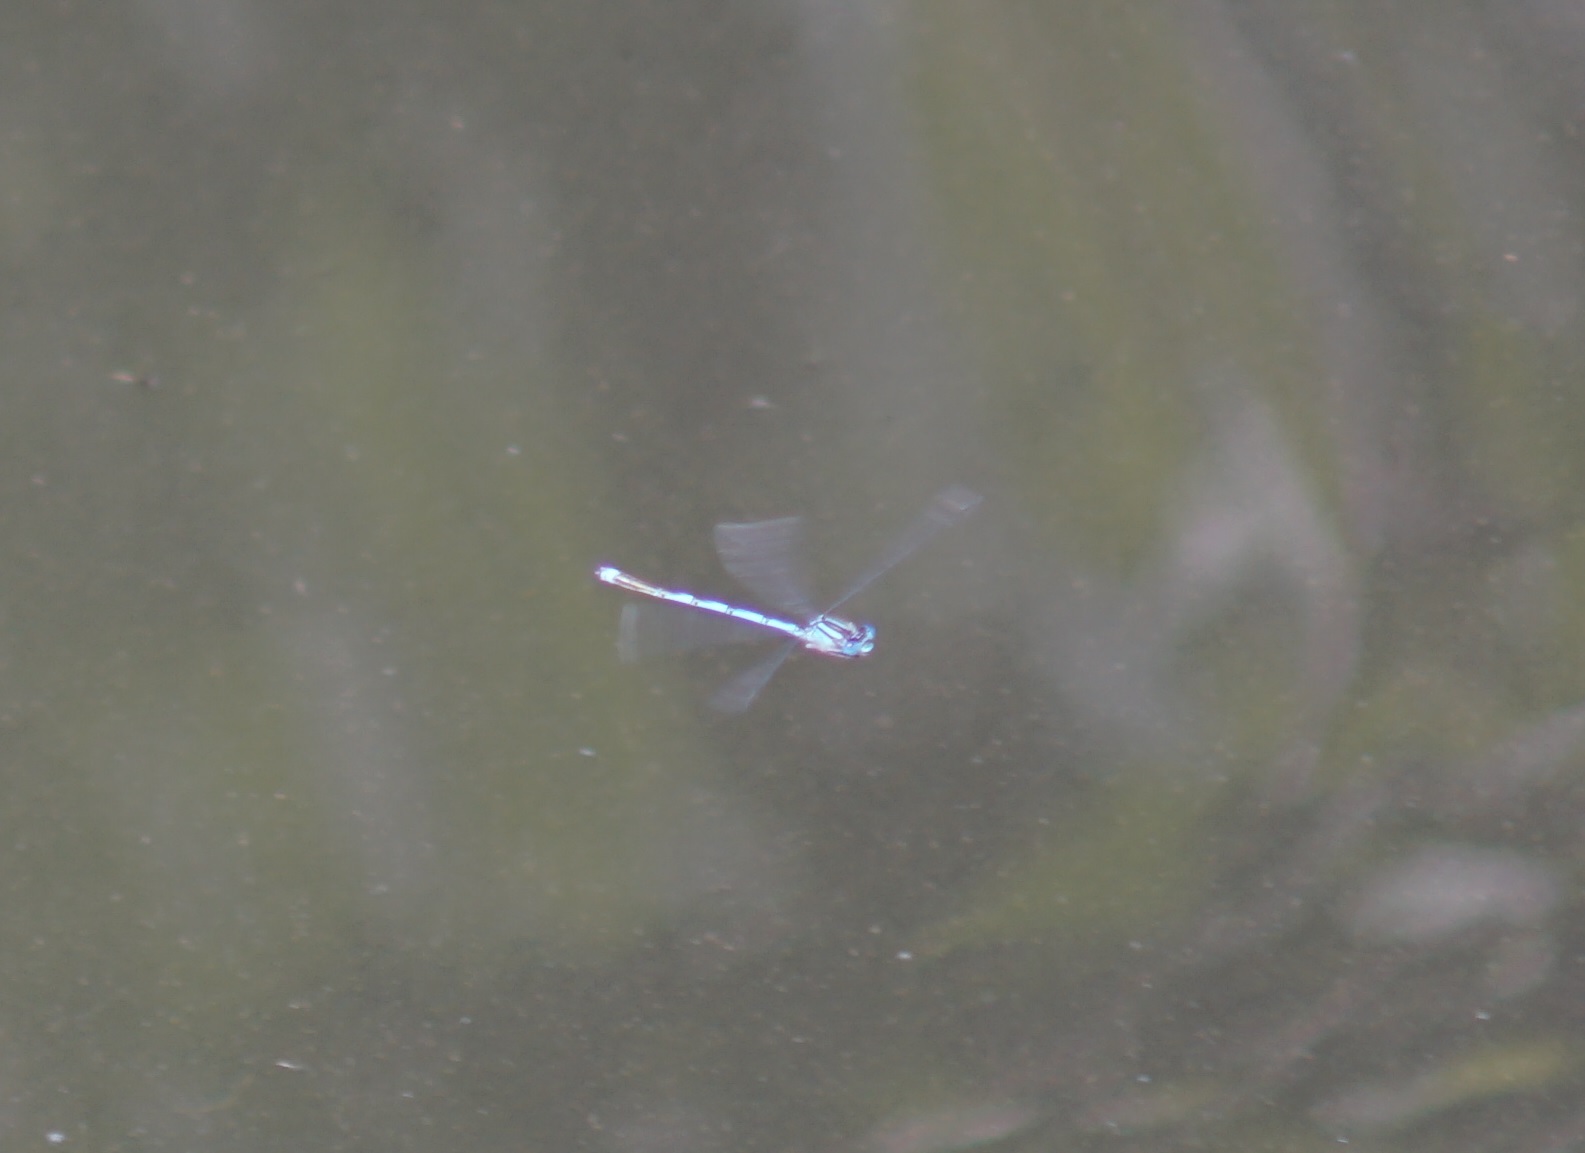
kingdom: Animalia
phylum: Arthropoda
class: Insecta
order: Odonata
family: Coenagrionidae
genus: Erythromma
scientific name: Erythromma lindenii
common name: Blue-eye
